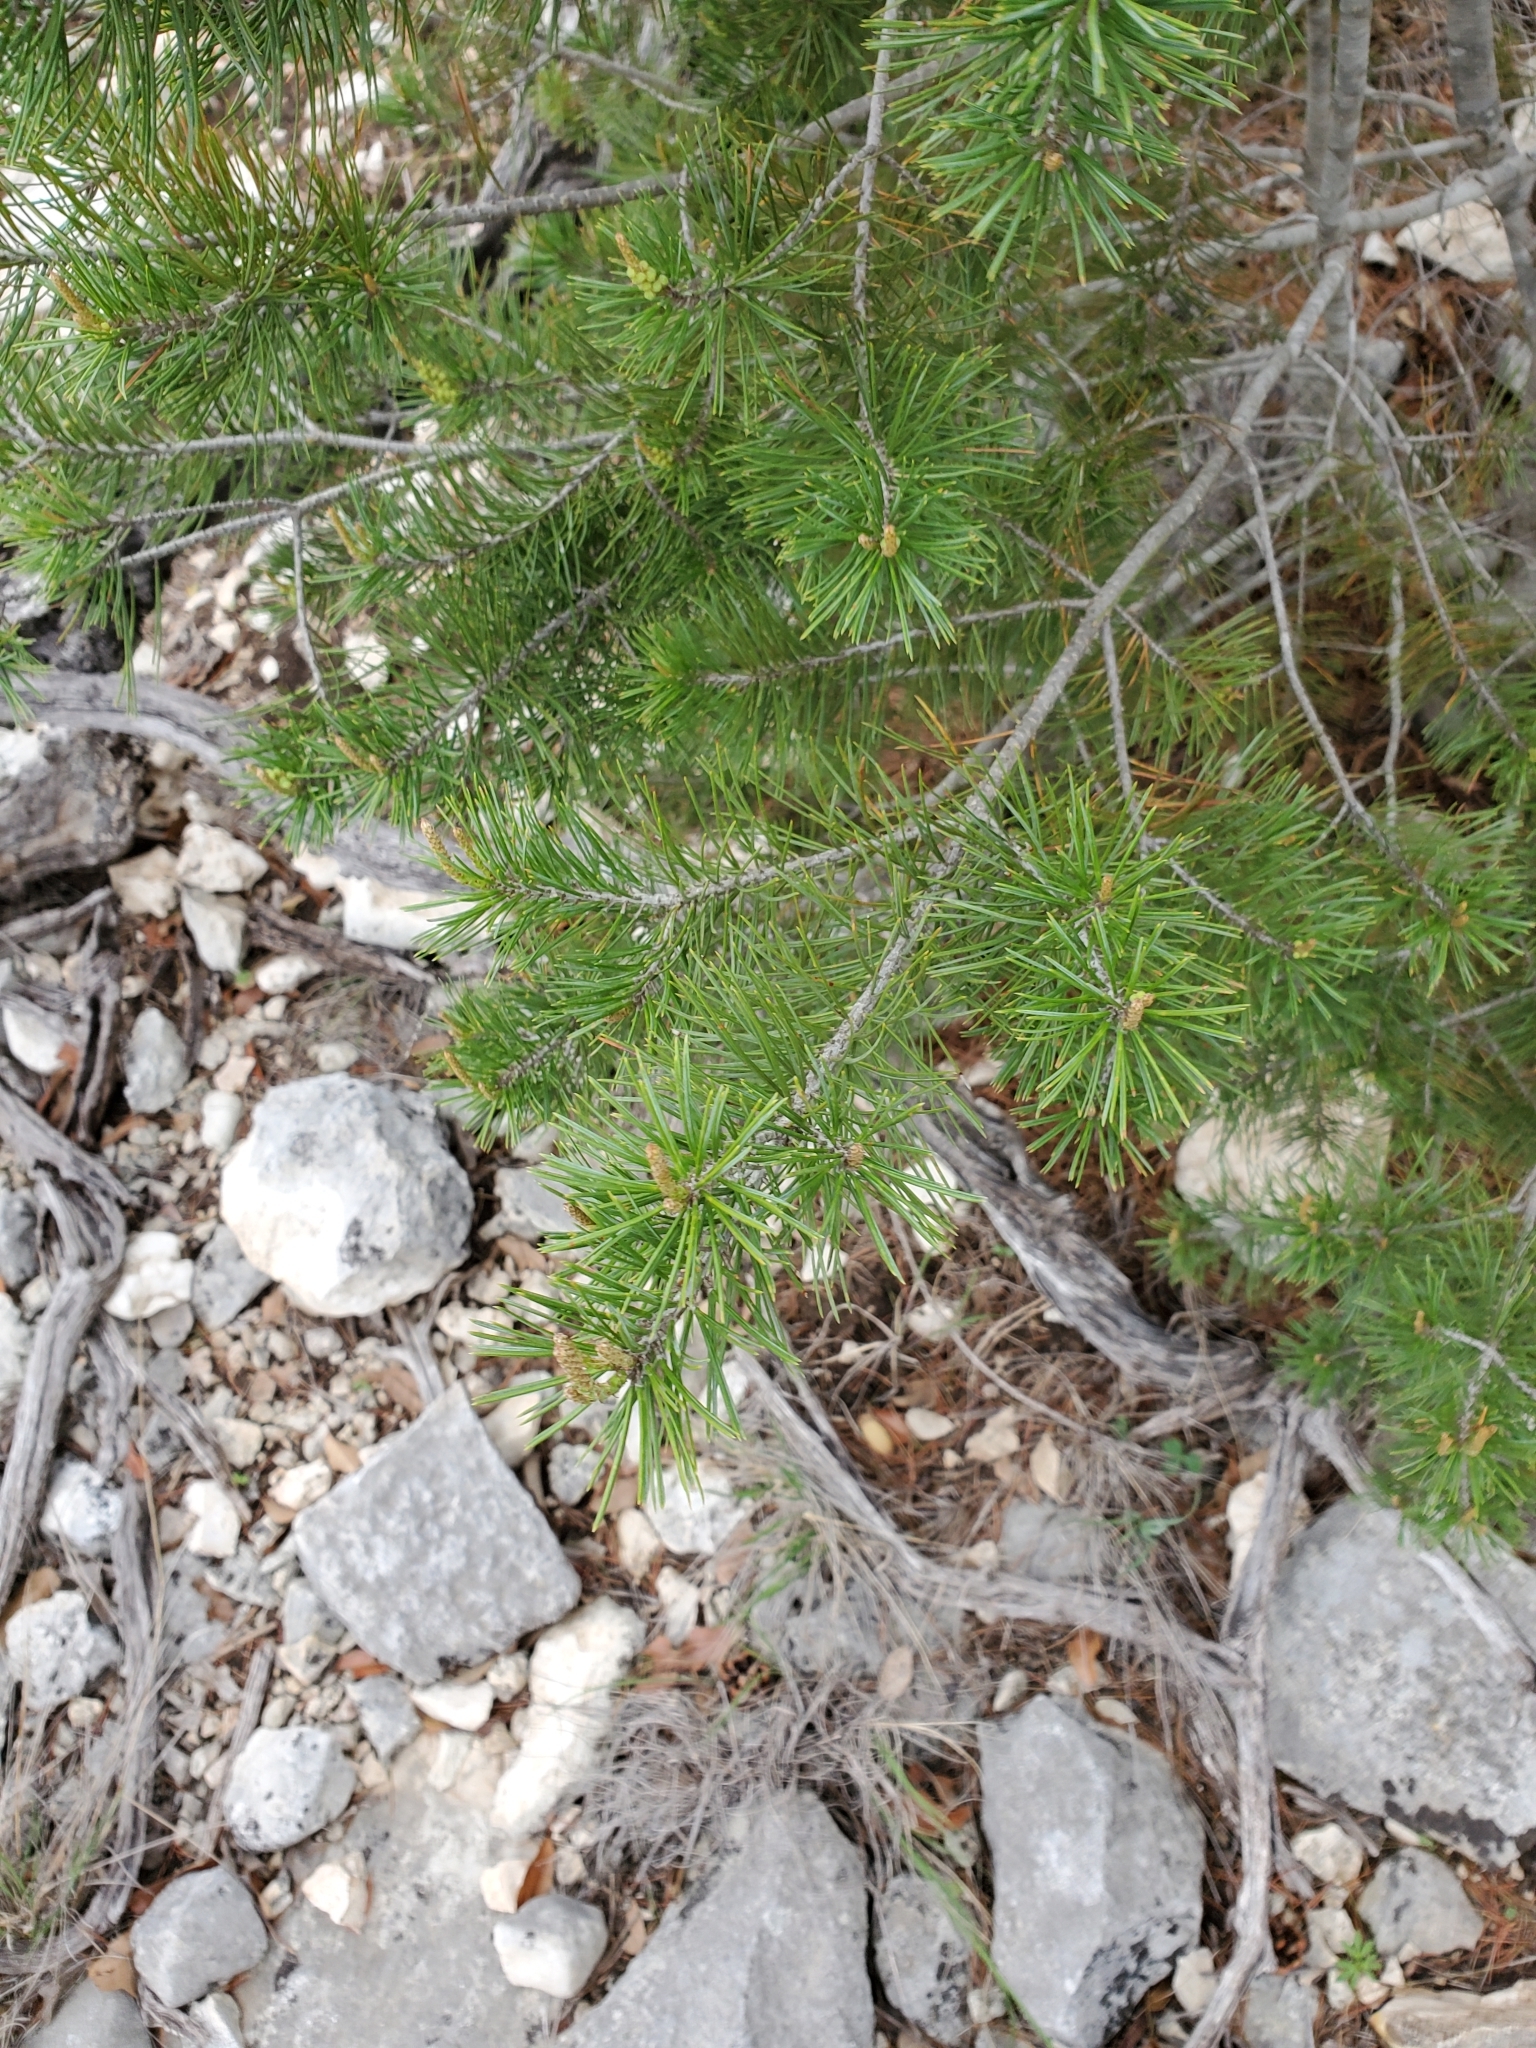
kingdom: Plantae
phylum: Tracheophyta
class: Pinopsida
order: Pinales
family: Pinaceae
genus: Pinus
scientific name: Pinus remota
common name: Nut pine
